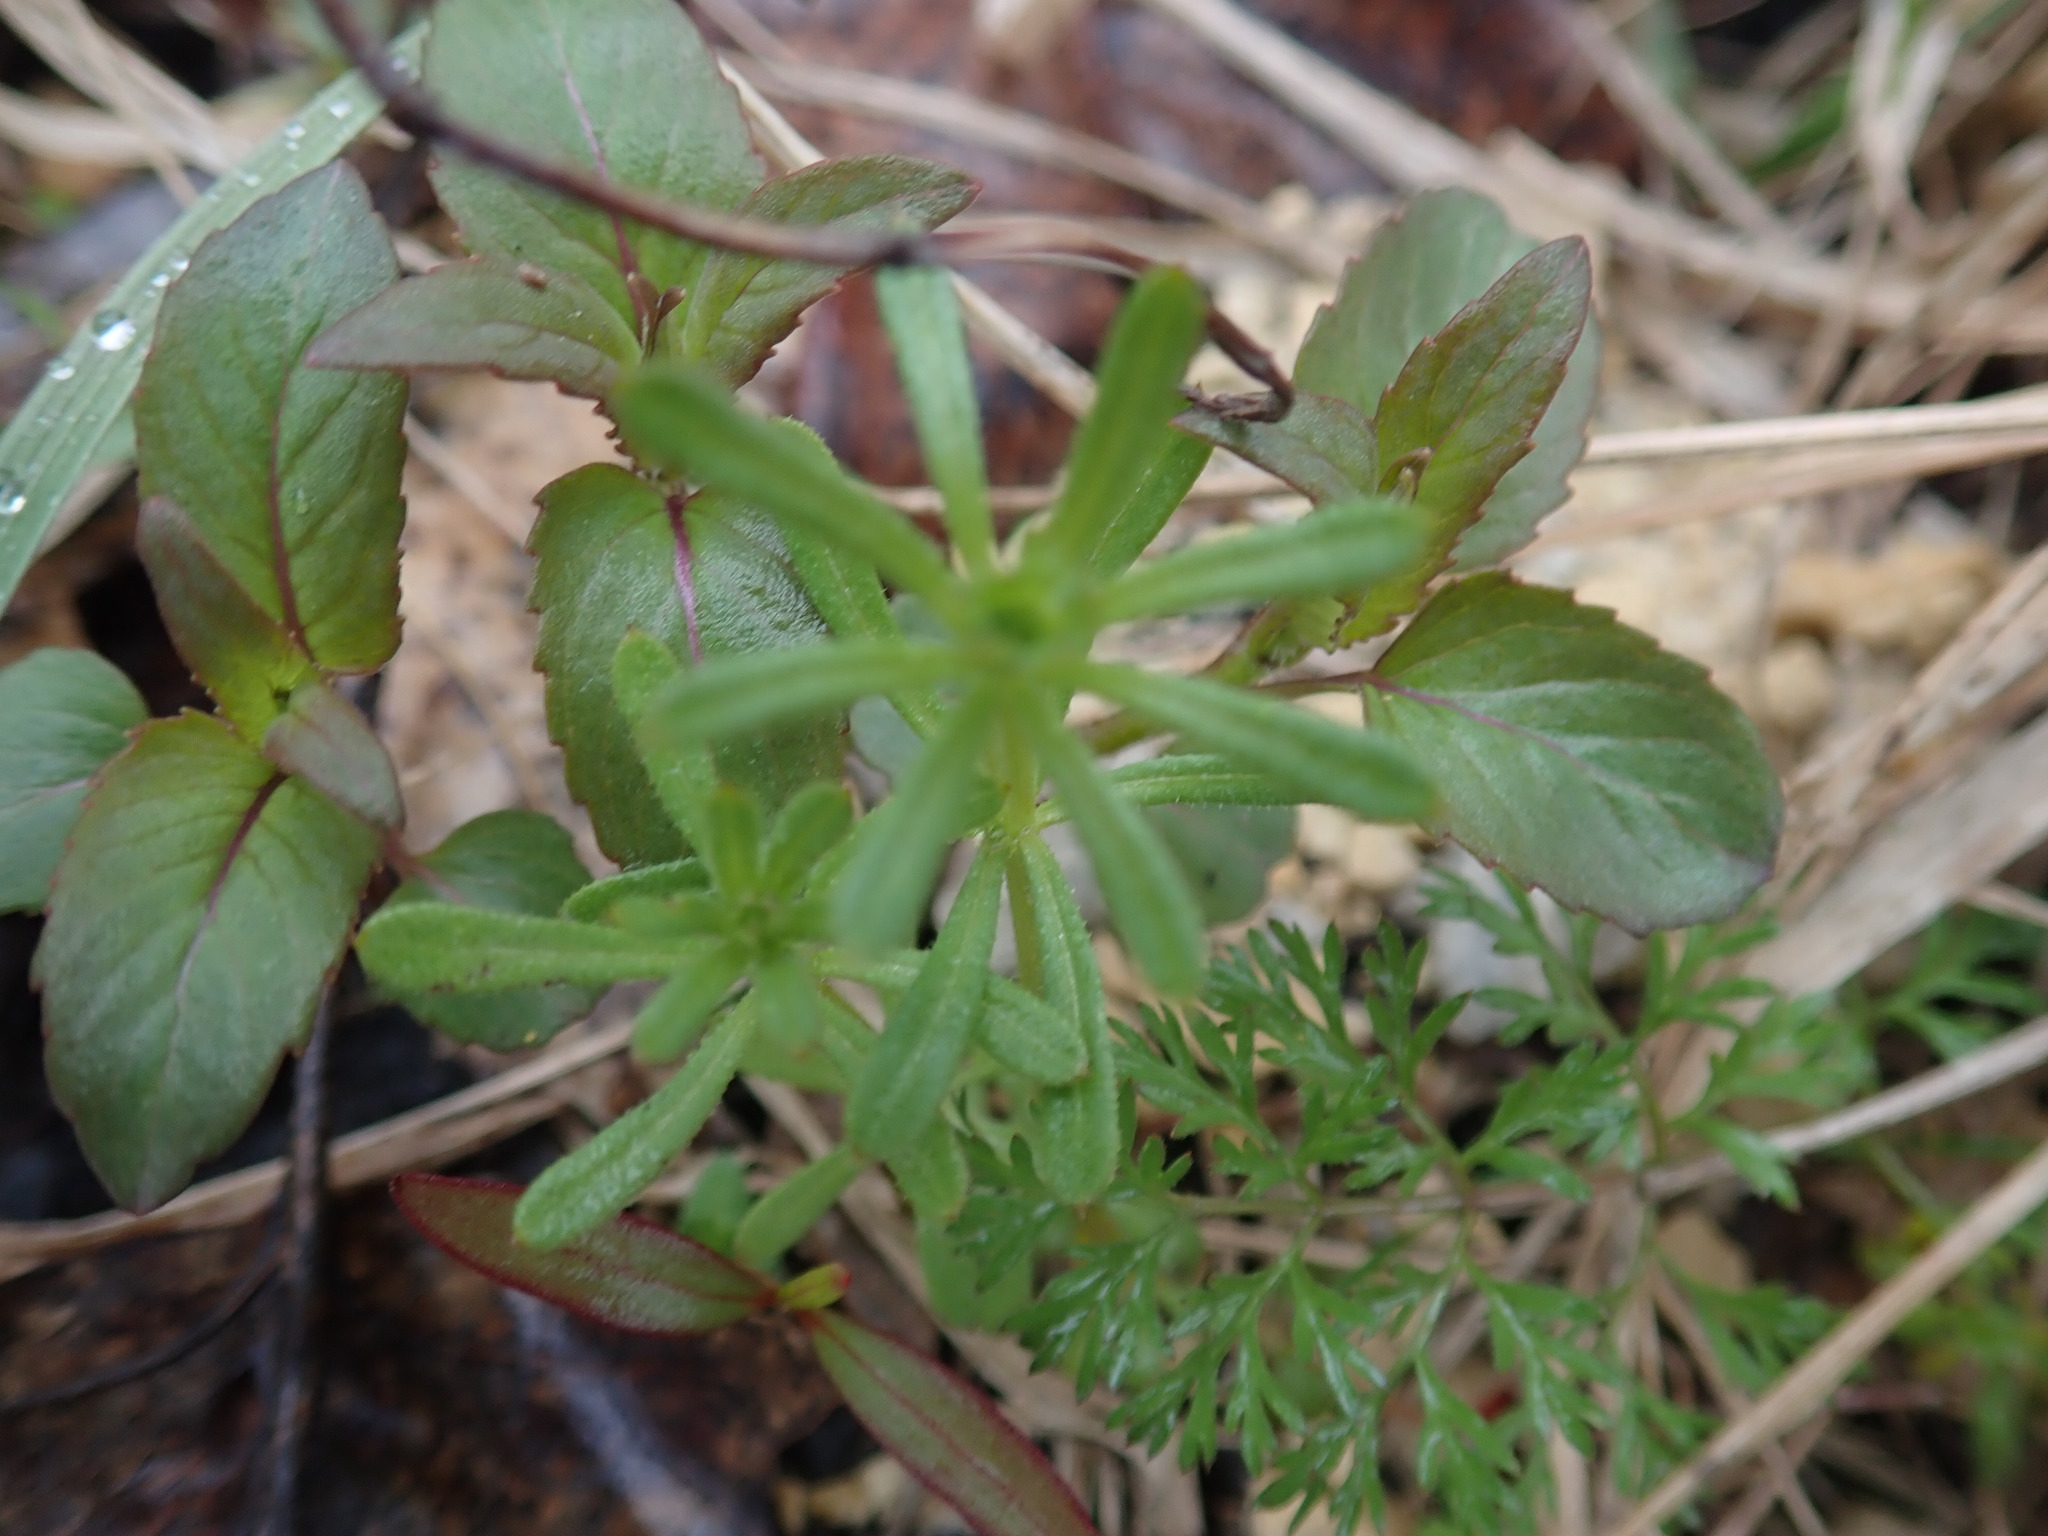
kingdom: Plantae
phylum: Tracheophyta
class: Magnoliopsida
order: Gentianales
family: Rubiaceae
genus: Galium
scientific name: Galium aparine
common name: Cleavers
